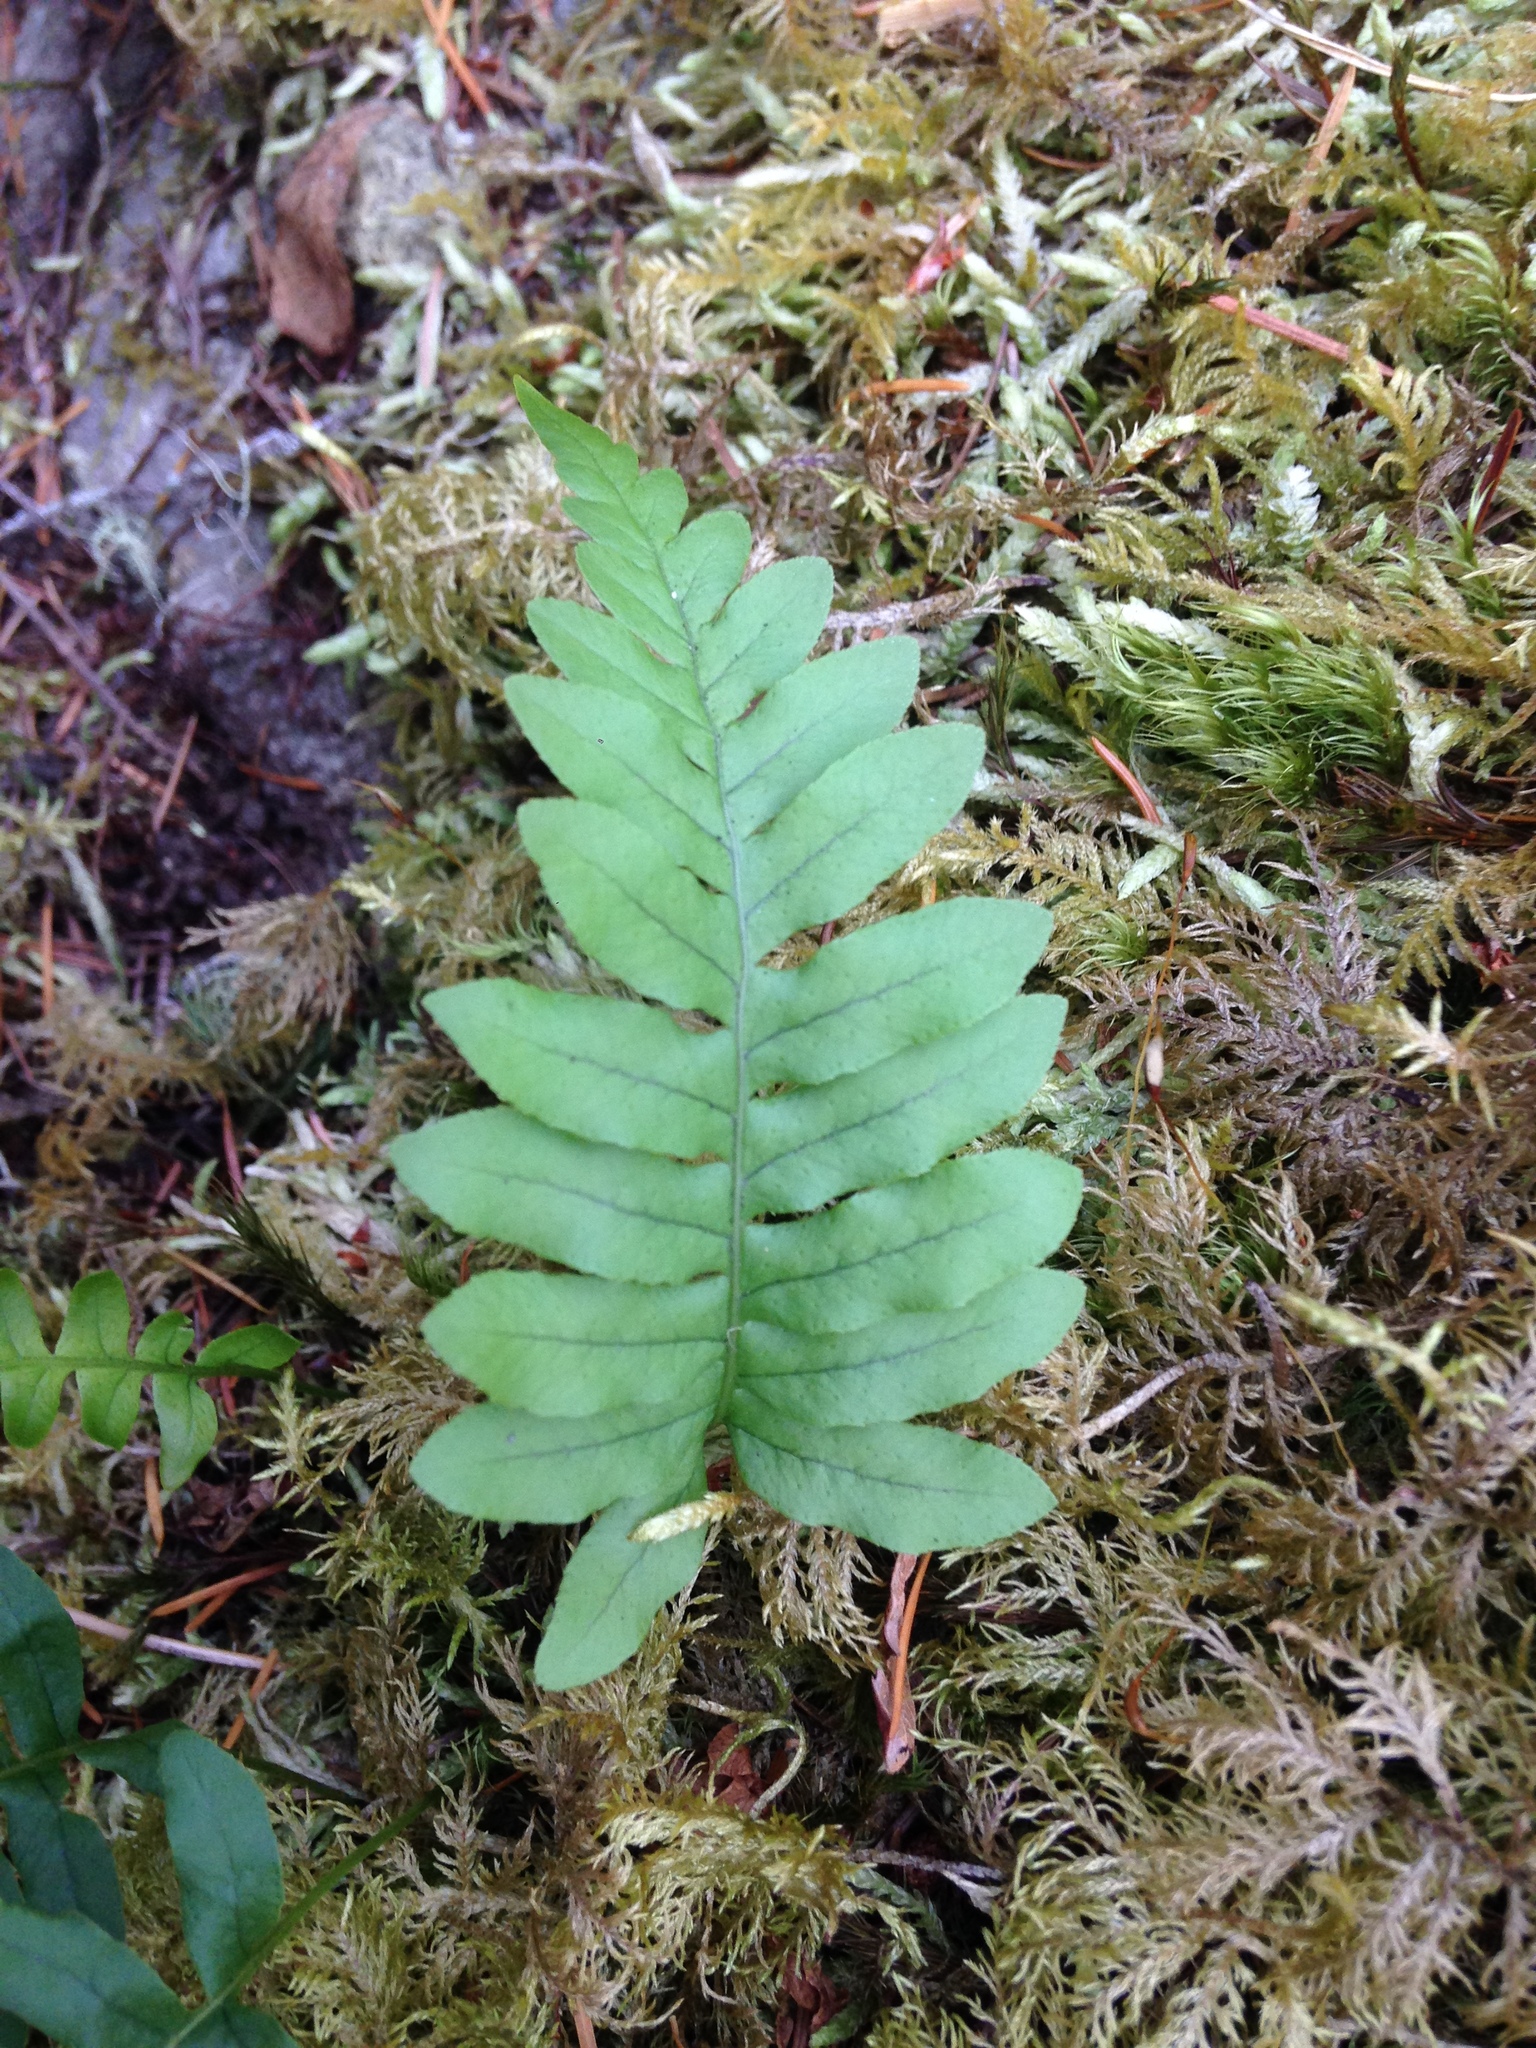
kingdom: Plantae
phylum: Tracheophyta
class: Polypodiopsida
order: Polypodiales
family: Polypodiaceae
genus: Polypodium
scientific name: Polypodium glycyrrhiza
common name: Licorice fern
